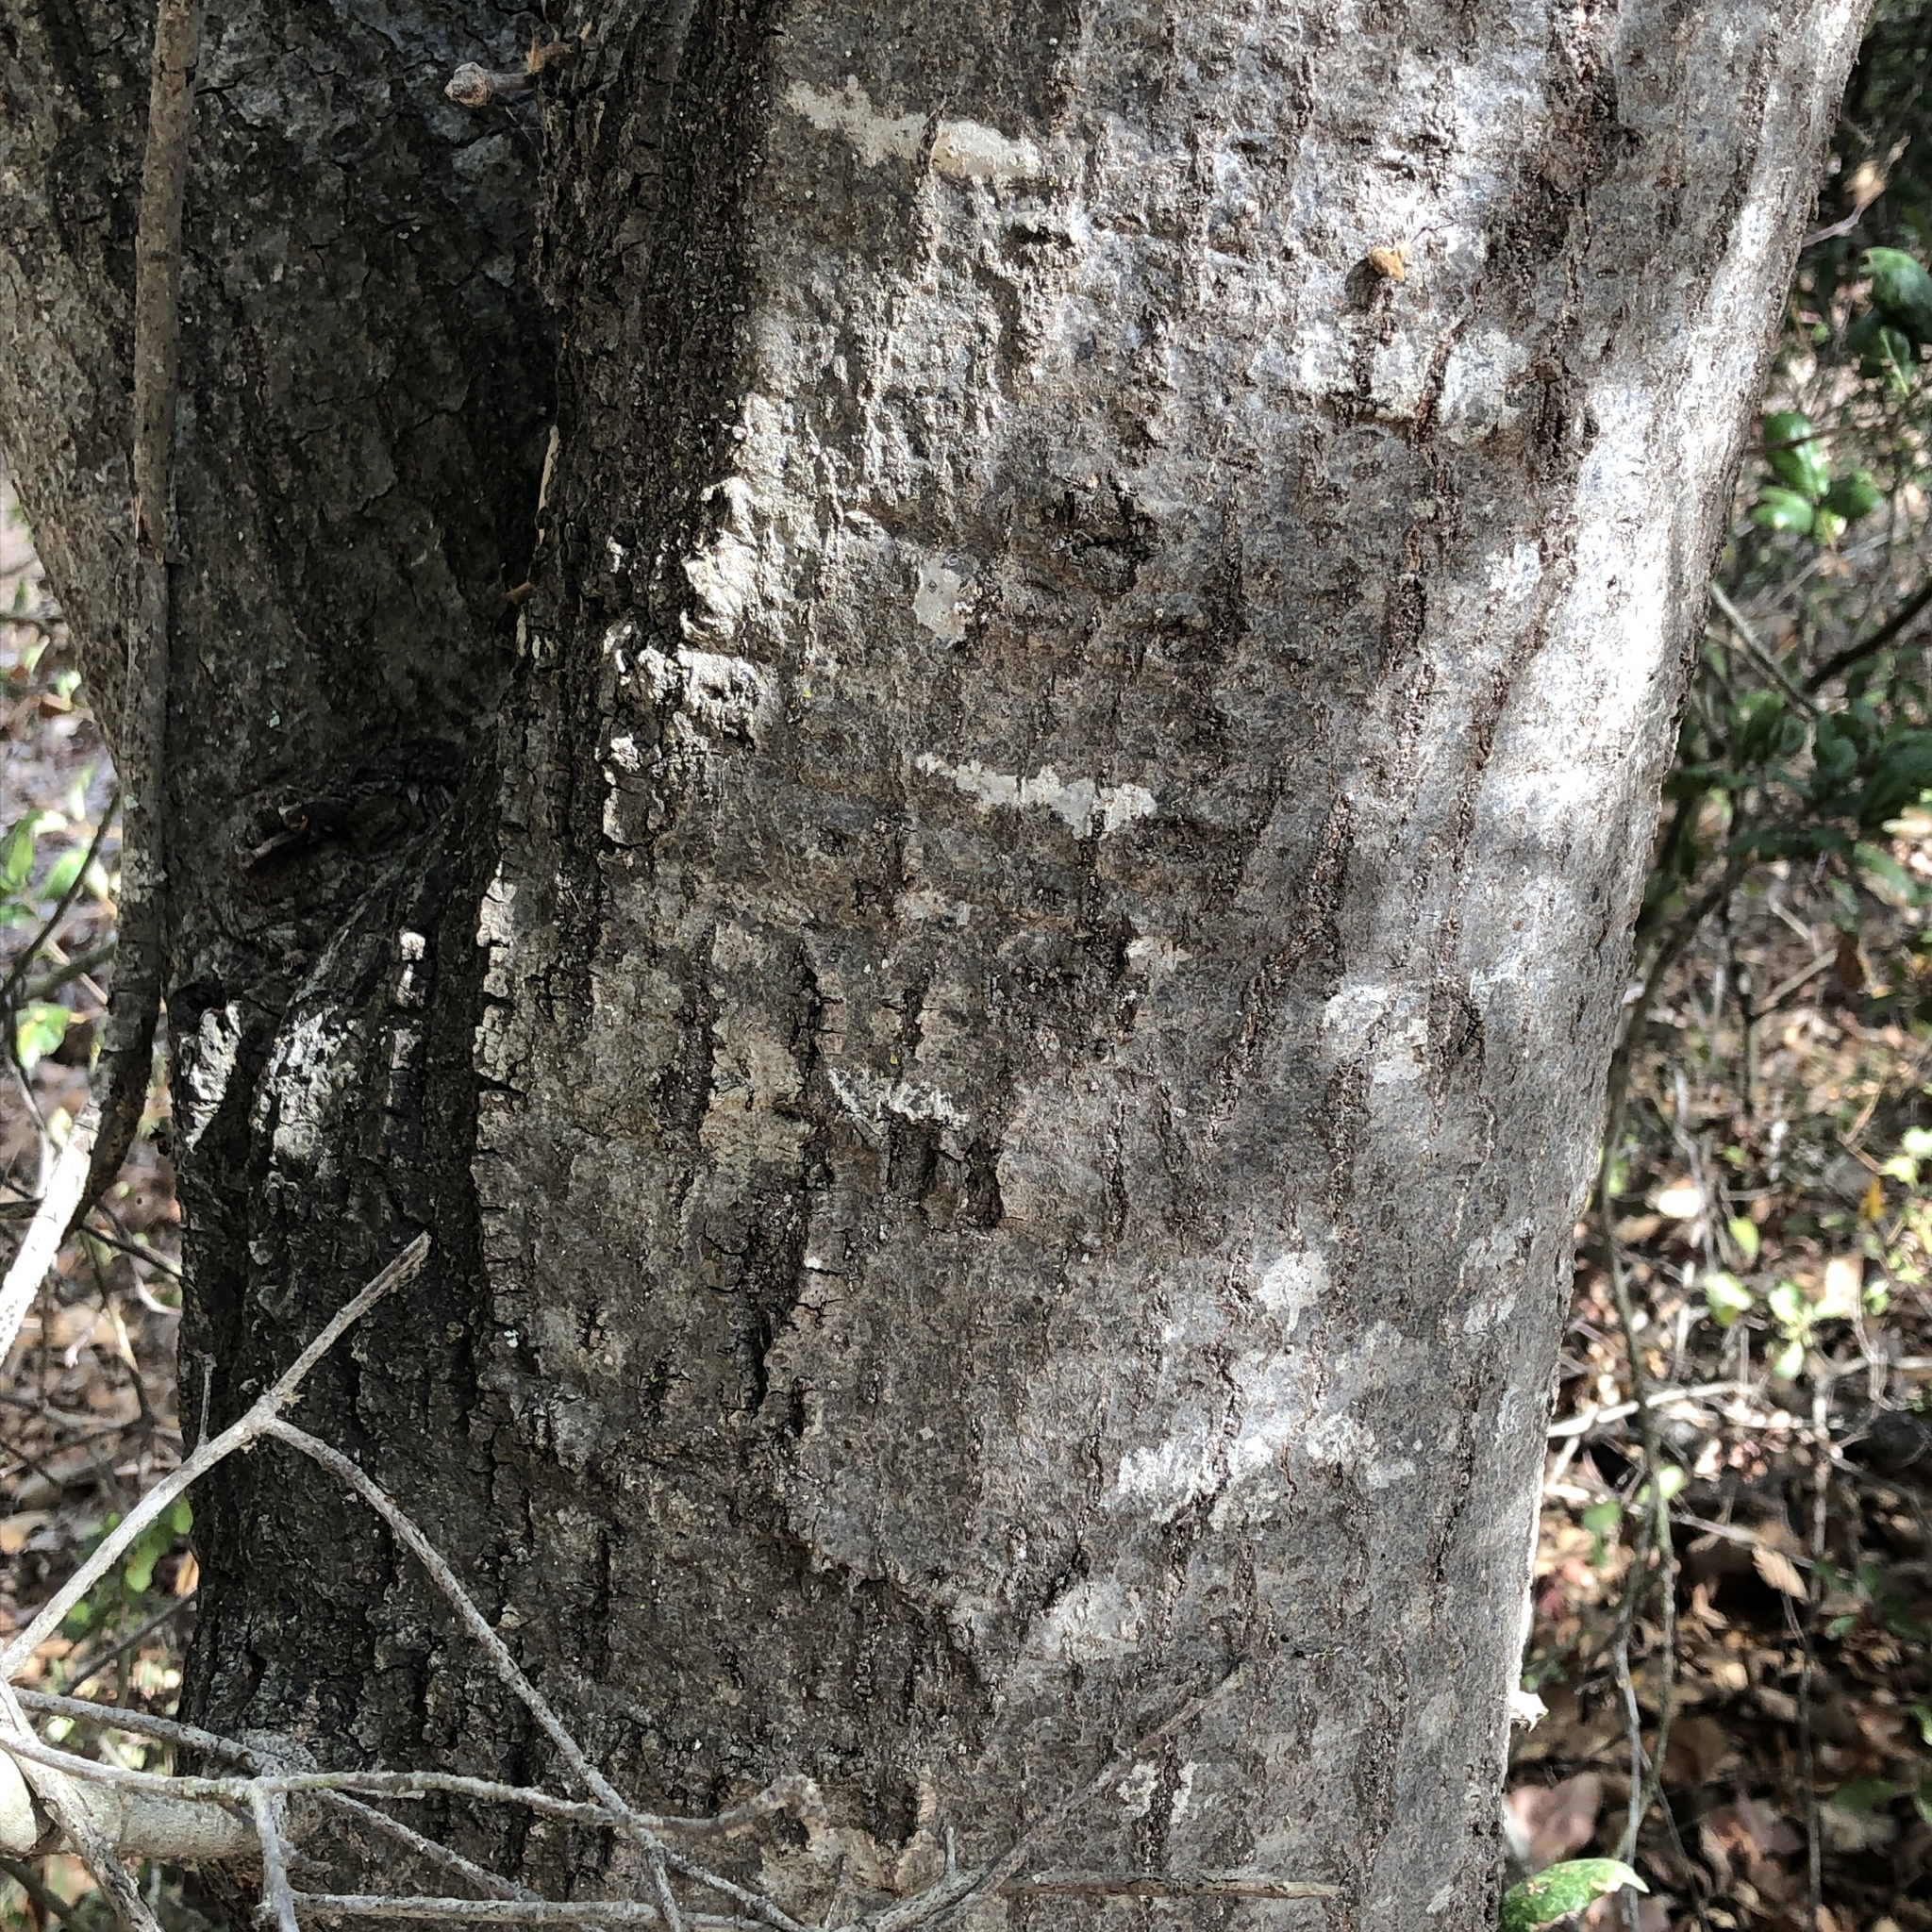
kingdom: Plantae
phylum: Tracheophyta
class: Magnoliopsida
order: Fagales
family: Fagaceae
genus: Quercus
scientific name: Quercus agrifolia
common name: California live oak
